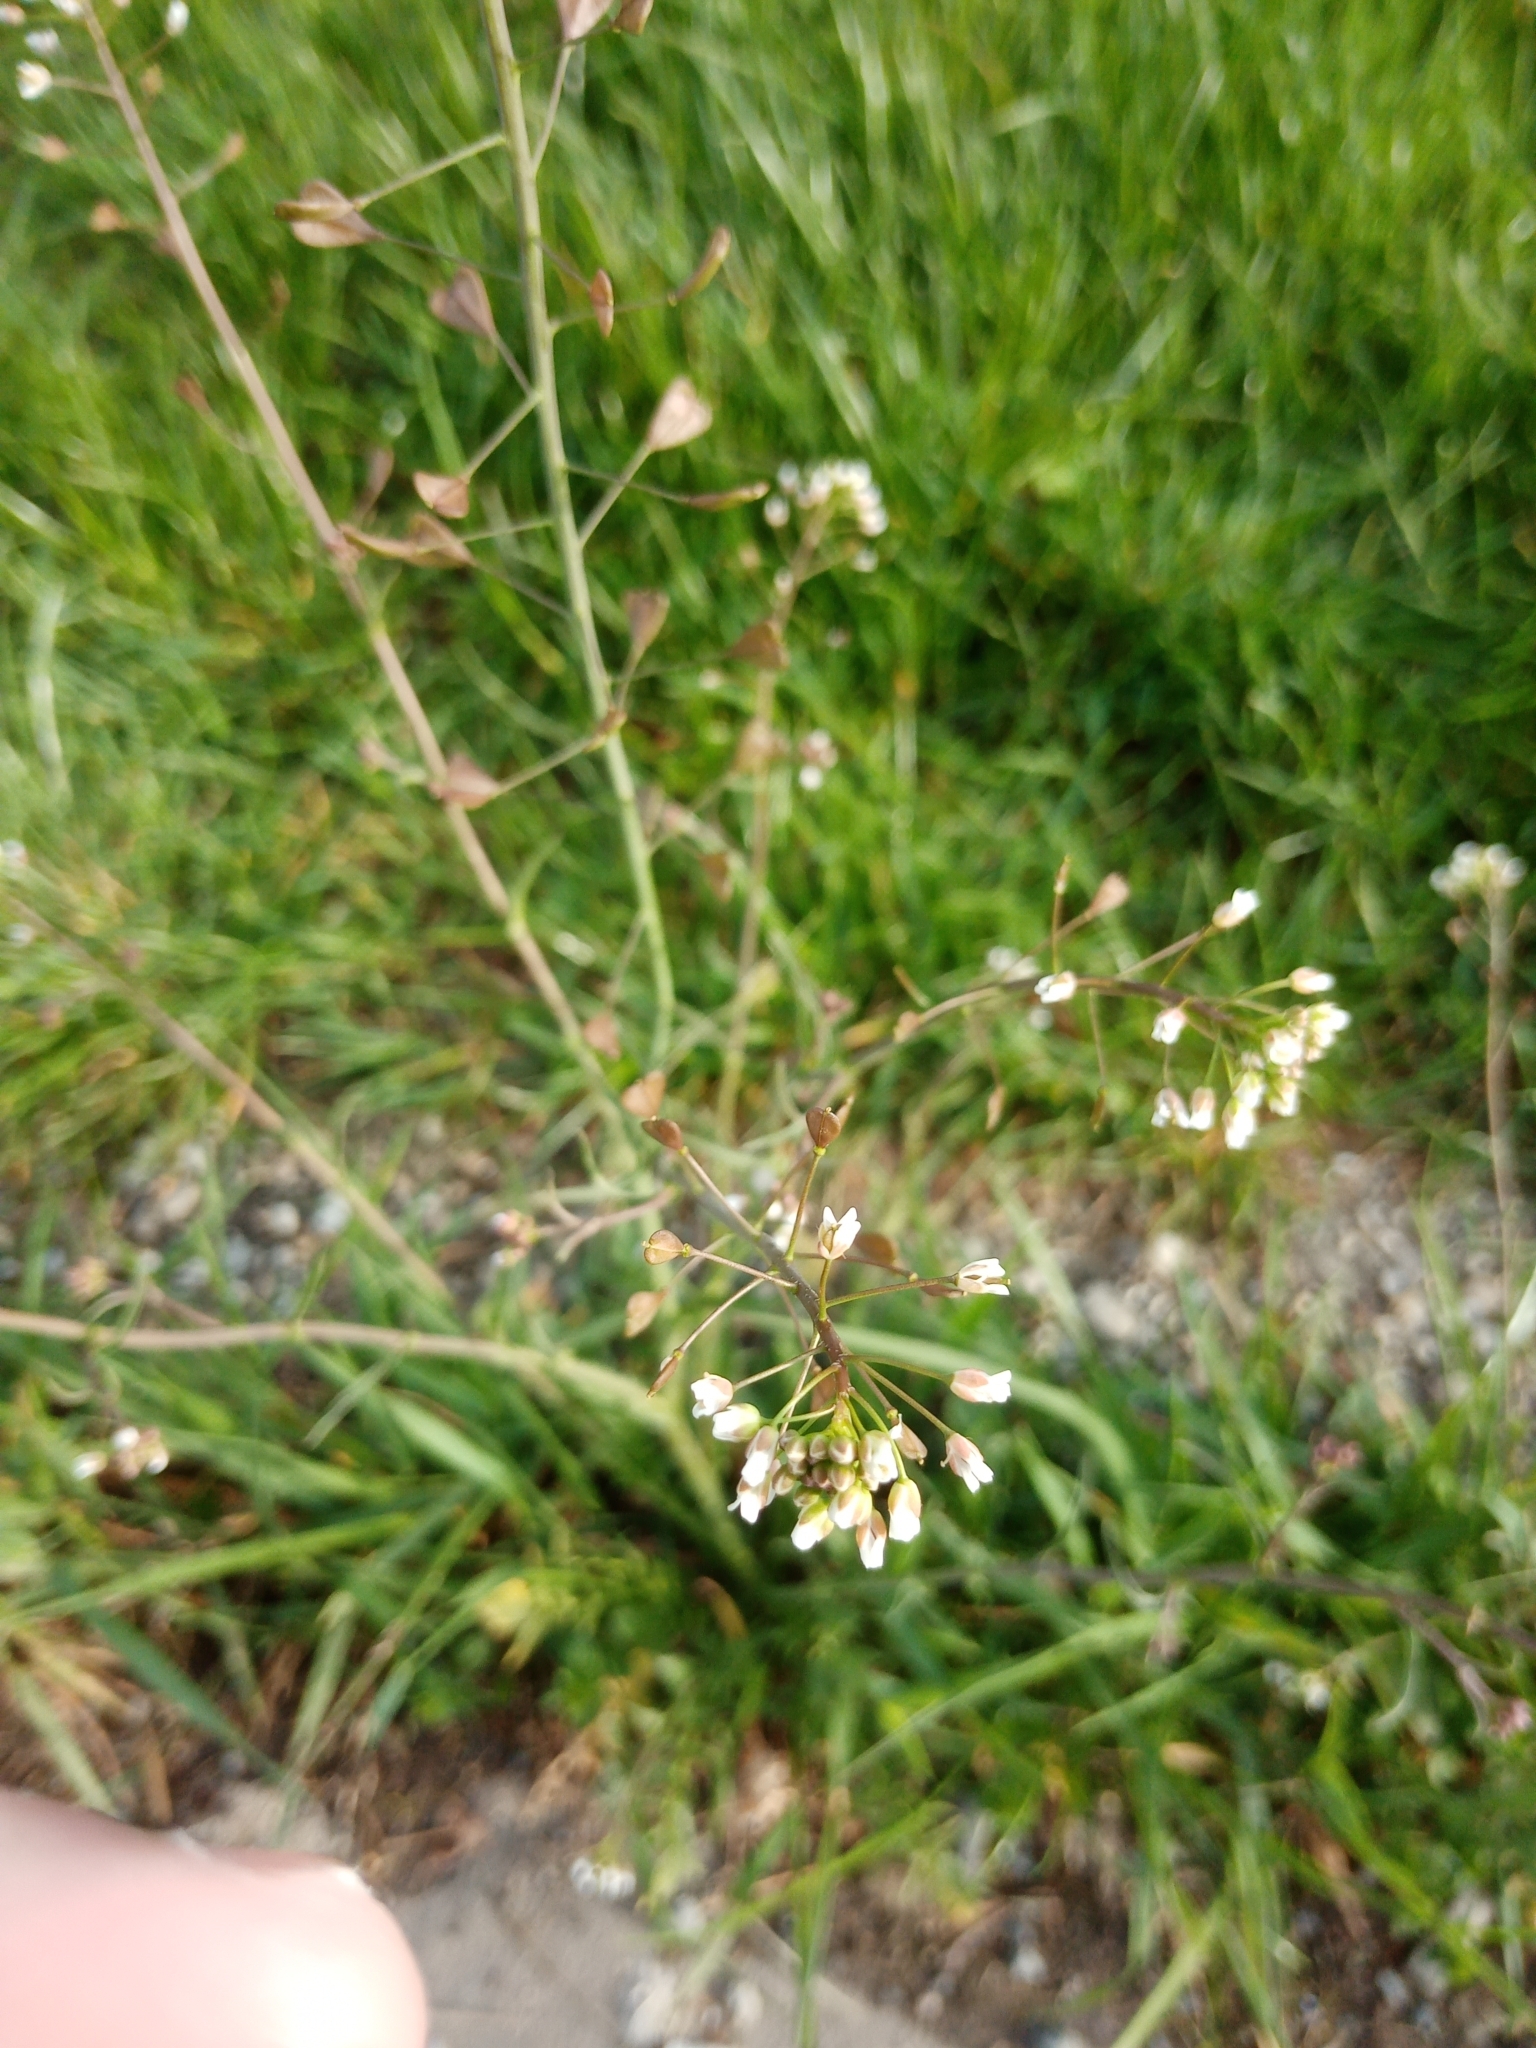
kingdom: Plantae
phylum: Tracheophyta
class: Magnoliopsida
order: Brassicales
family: Brassicaceae
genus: Capsella
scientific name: Capsella bursa-pastoris
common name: Shepherd's purse
